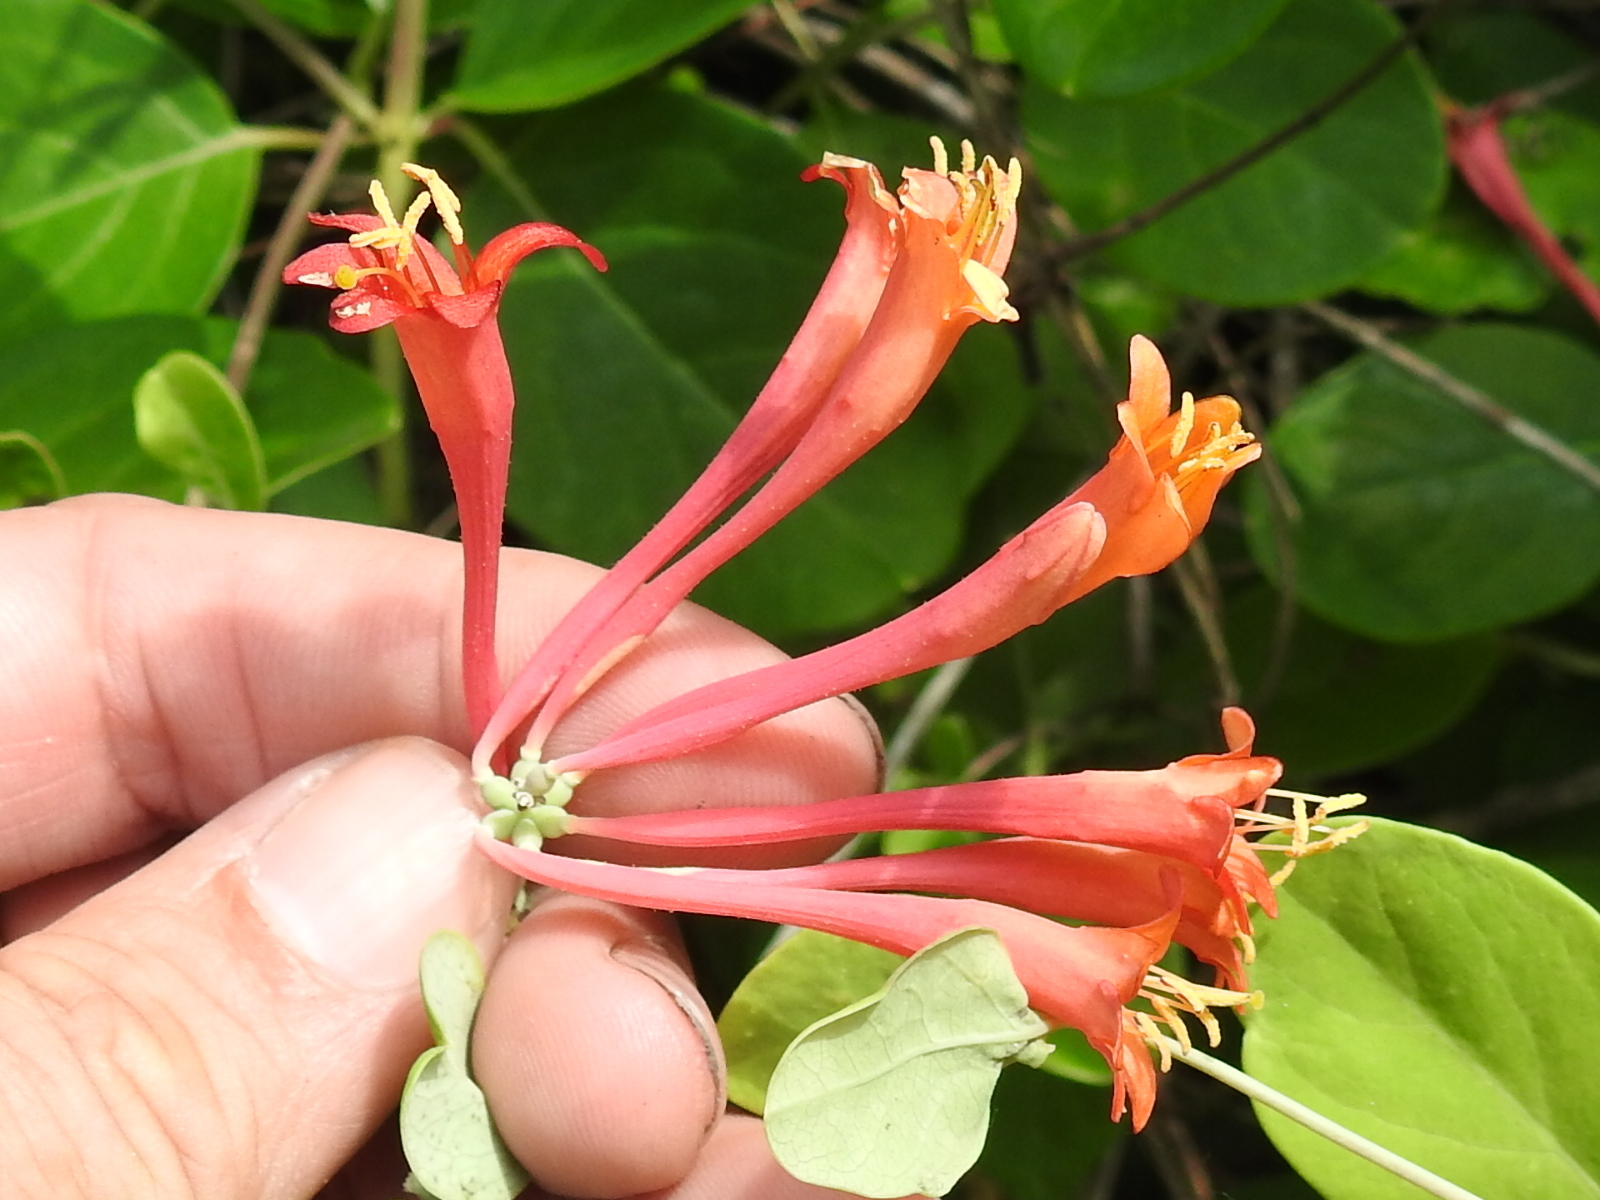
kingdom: Plantae
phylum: Tracheophyta
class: Magnoliopsida
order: Dipsacales
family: Caprifoliaceae
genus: Lonicera
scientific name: Lonicera sempervirens
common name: Coral honeysuckle
